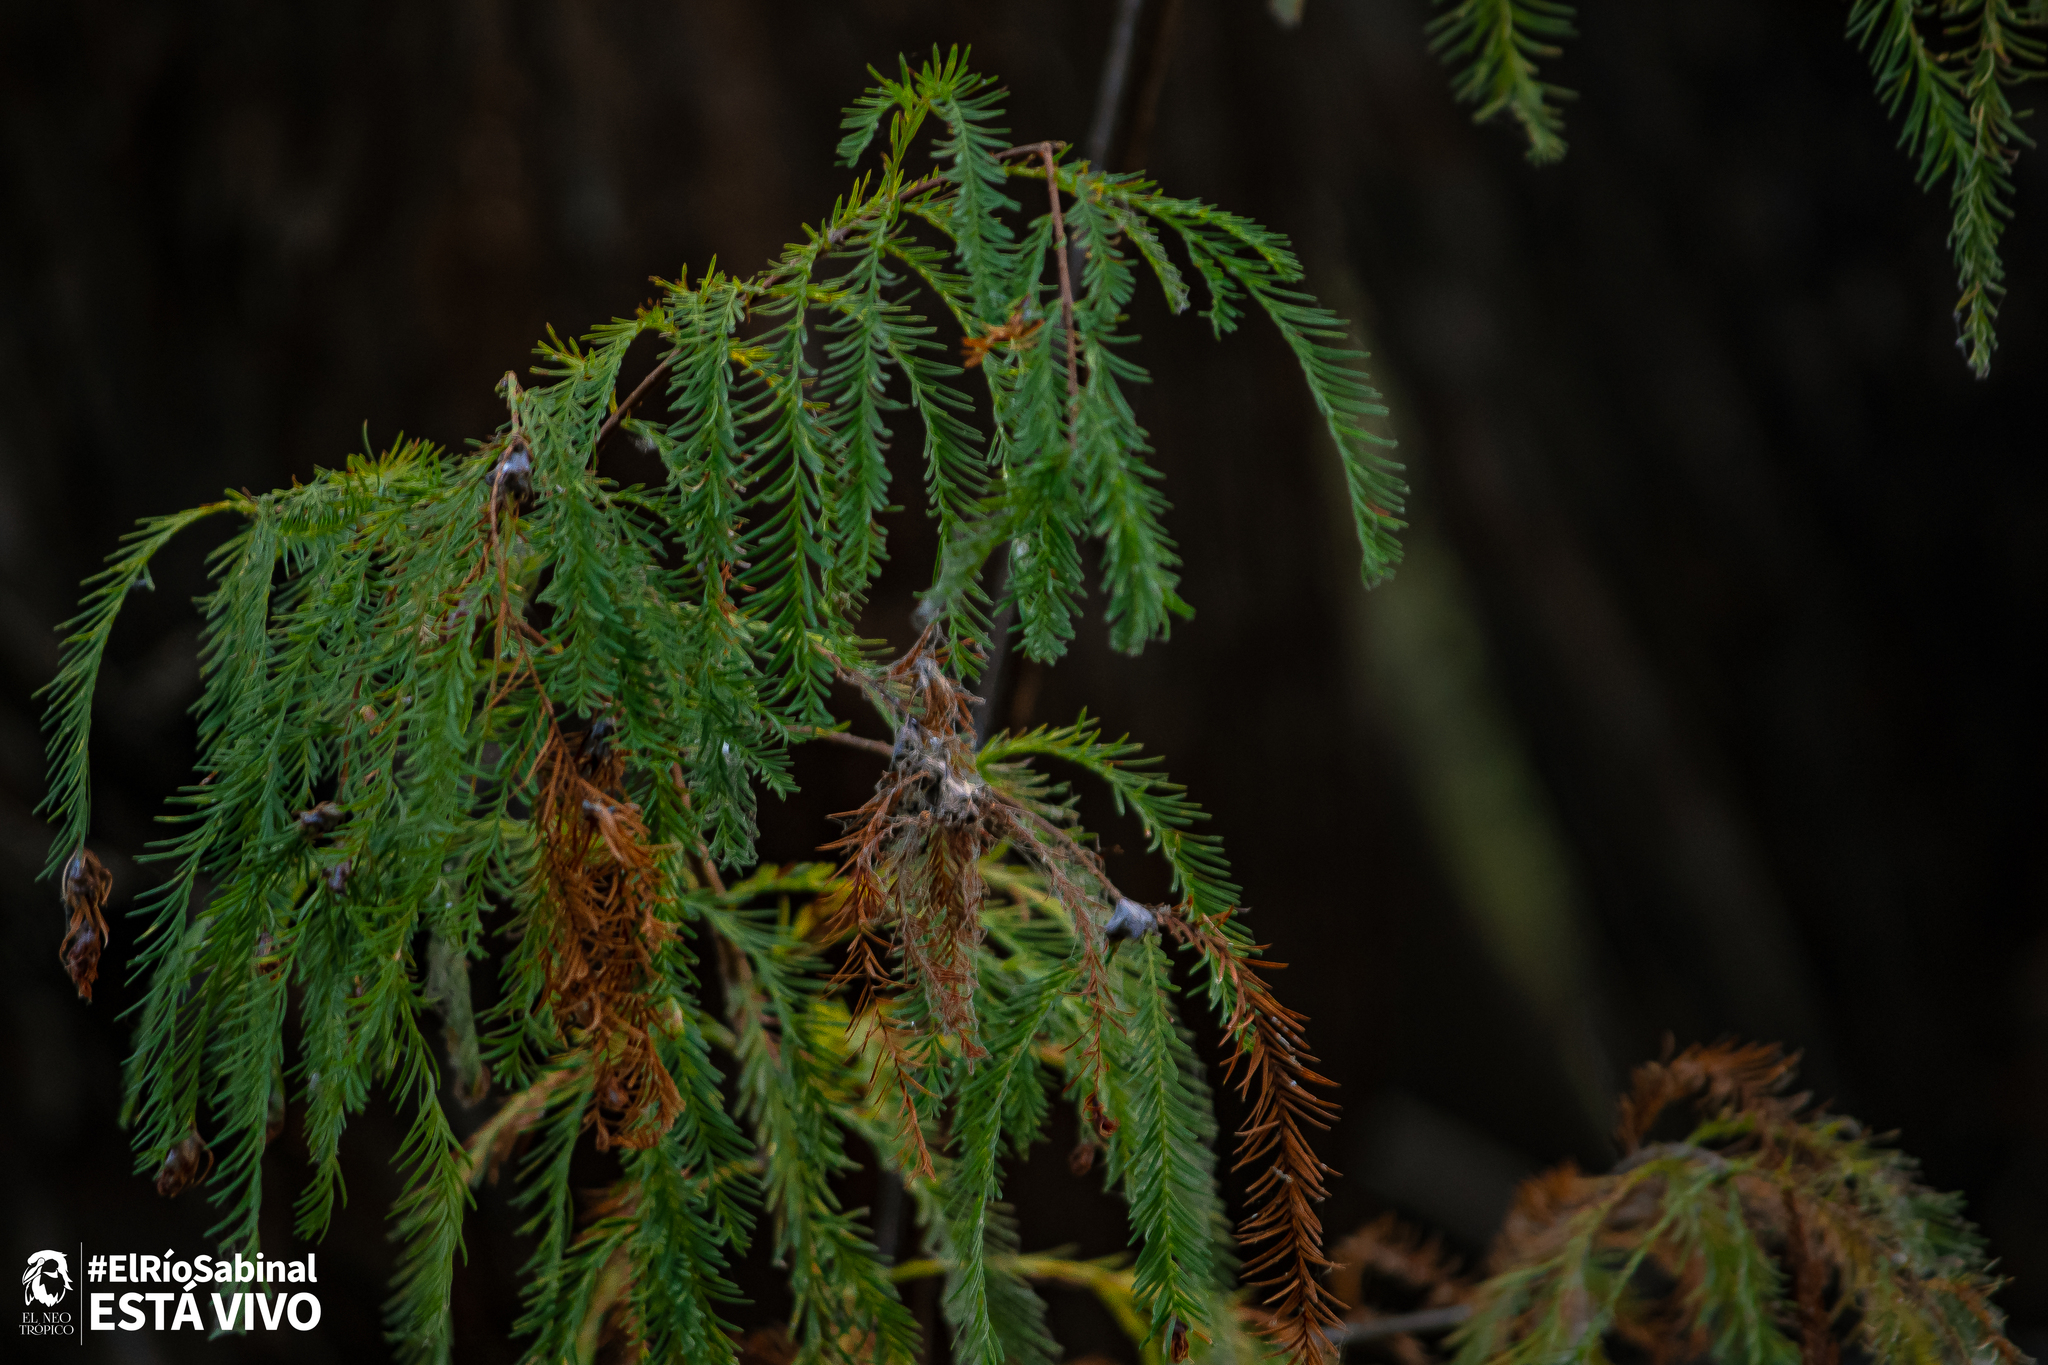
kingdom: Plantae
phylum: Tracheophyta
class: Pinopsida
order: Pinales
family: Cupressaceae
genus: Taxodium
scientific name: Taxodium mucronatum
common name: Montezume bald cypress
